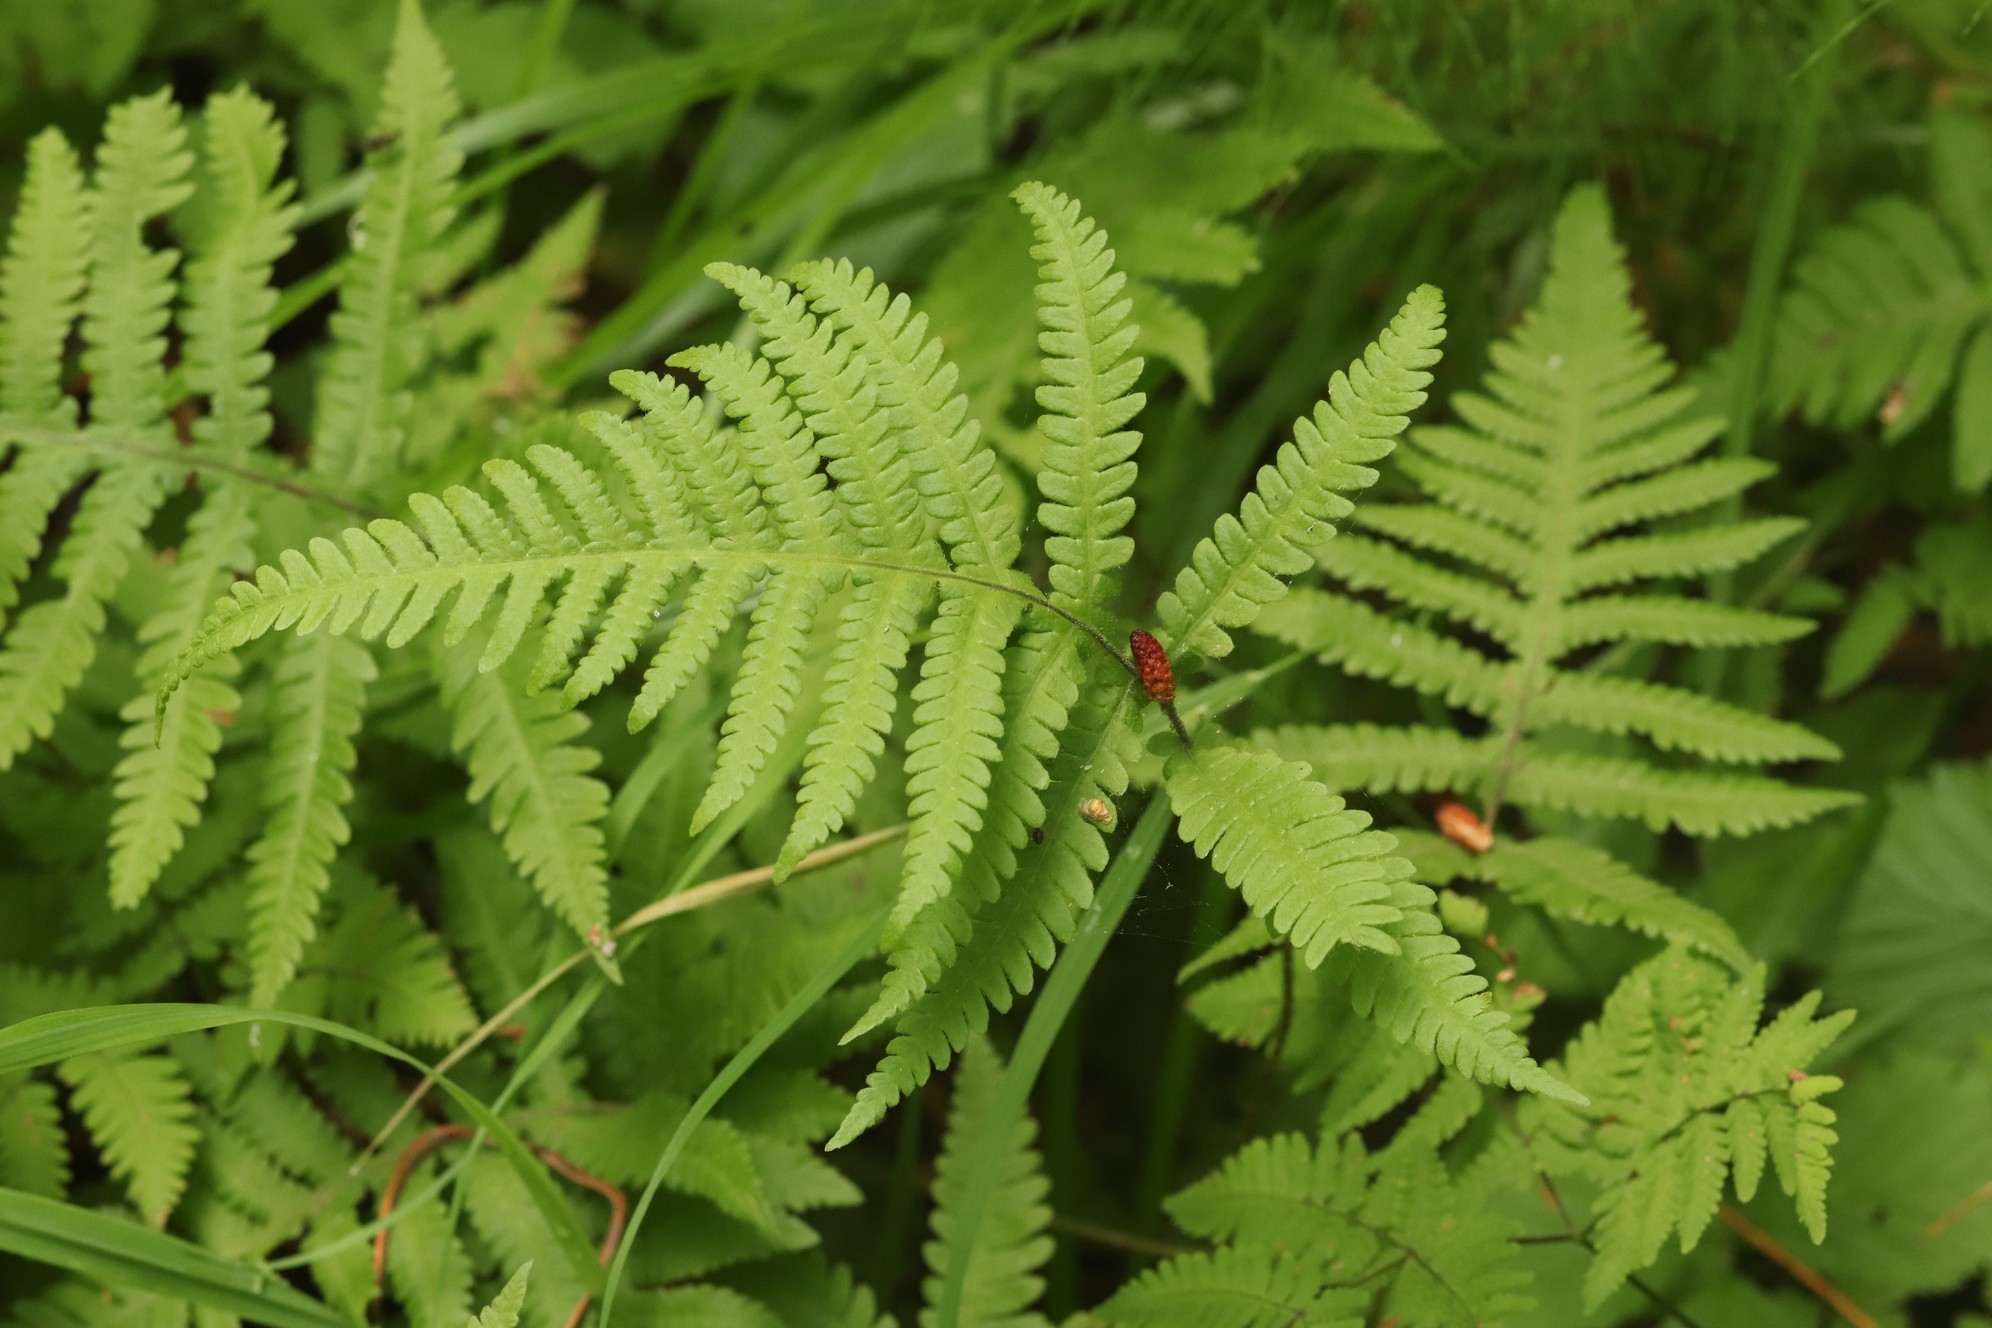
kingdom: Plantae
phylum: Tracheophyta
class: Polypodiopsida
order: Polypodiales
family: Thelypteridaceae
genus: Phegopteris
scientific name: Phegopteris connectilis
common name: Beech fern
